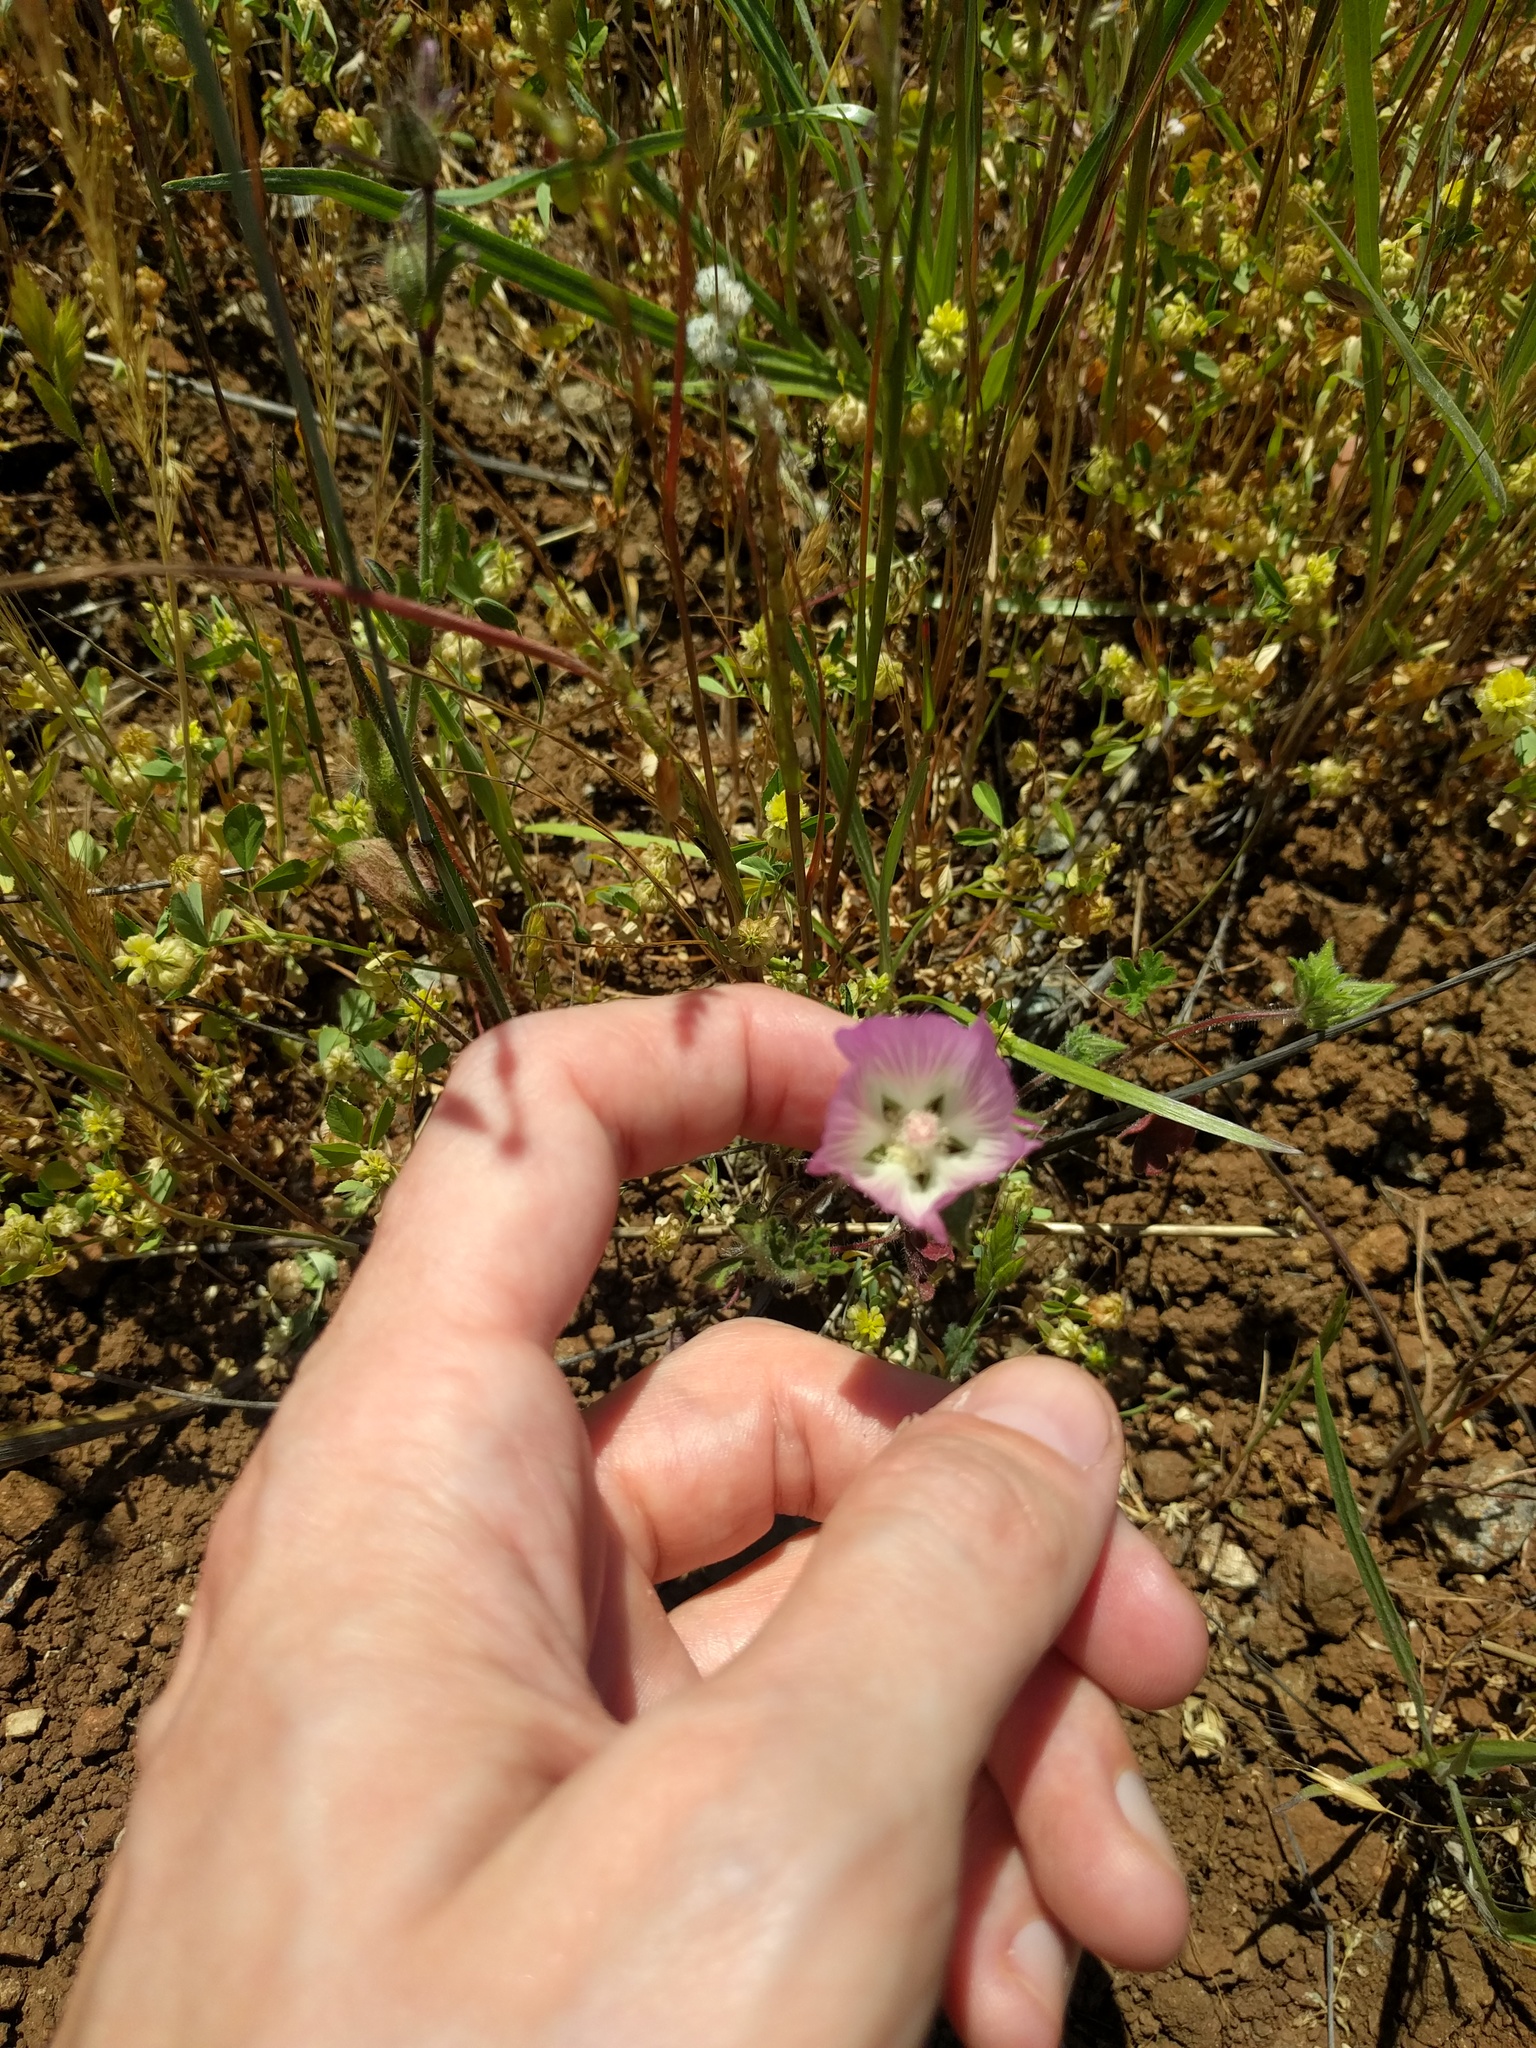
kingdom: Plantae
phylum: Tracheophyta
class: Magnoliopsida
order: Malvales
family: Malvaceae
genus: Sidalcea
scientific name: Sidalcea diploscypha
